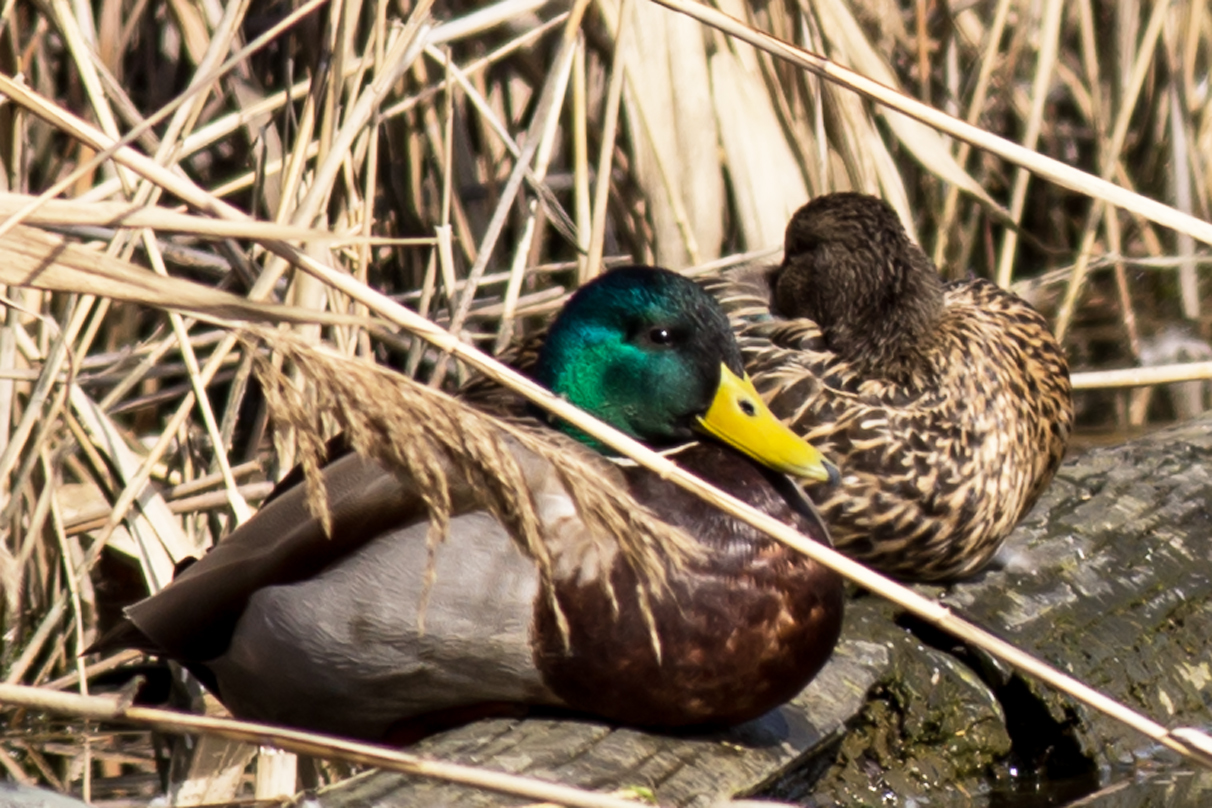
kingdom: Animalia
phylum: Chordata
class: Aves
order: Anseriformes
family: Anatidae
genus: Anas
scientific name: Anas platyrhynchos
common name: Mallard
